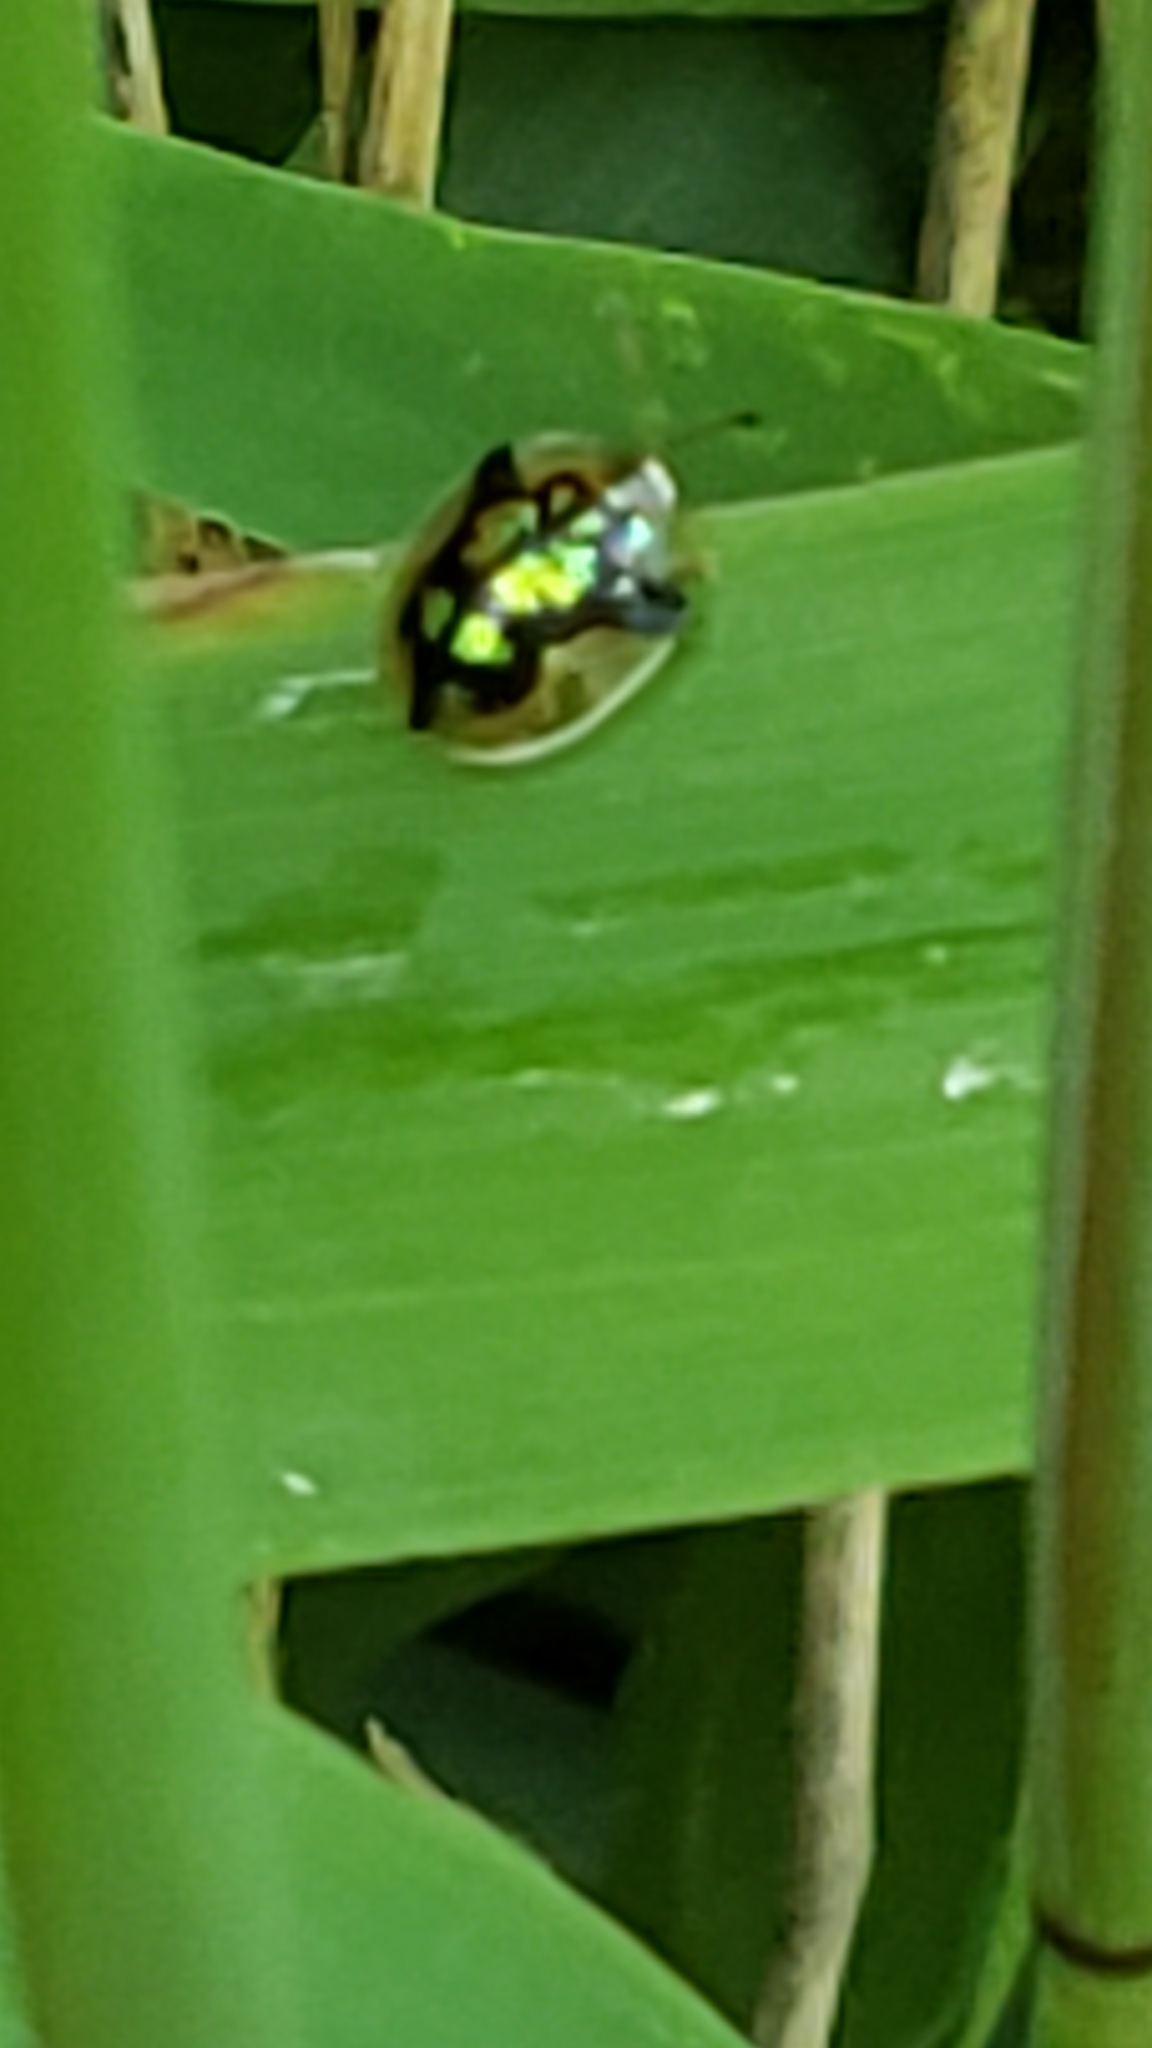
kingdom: Animalia
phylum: Arthropoda
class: Insecta
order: Coleoptera
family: Chrysomelidae
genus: Deloyala
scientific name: Deloyala guttata
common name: Mottled tortoise beetle
